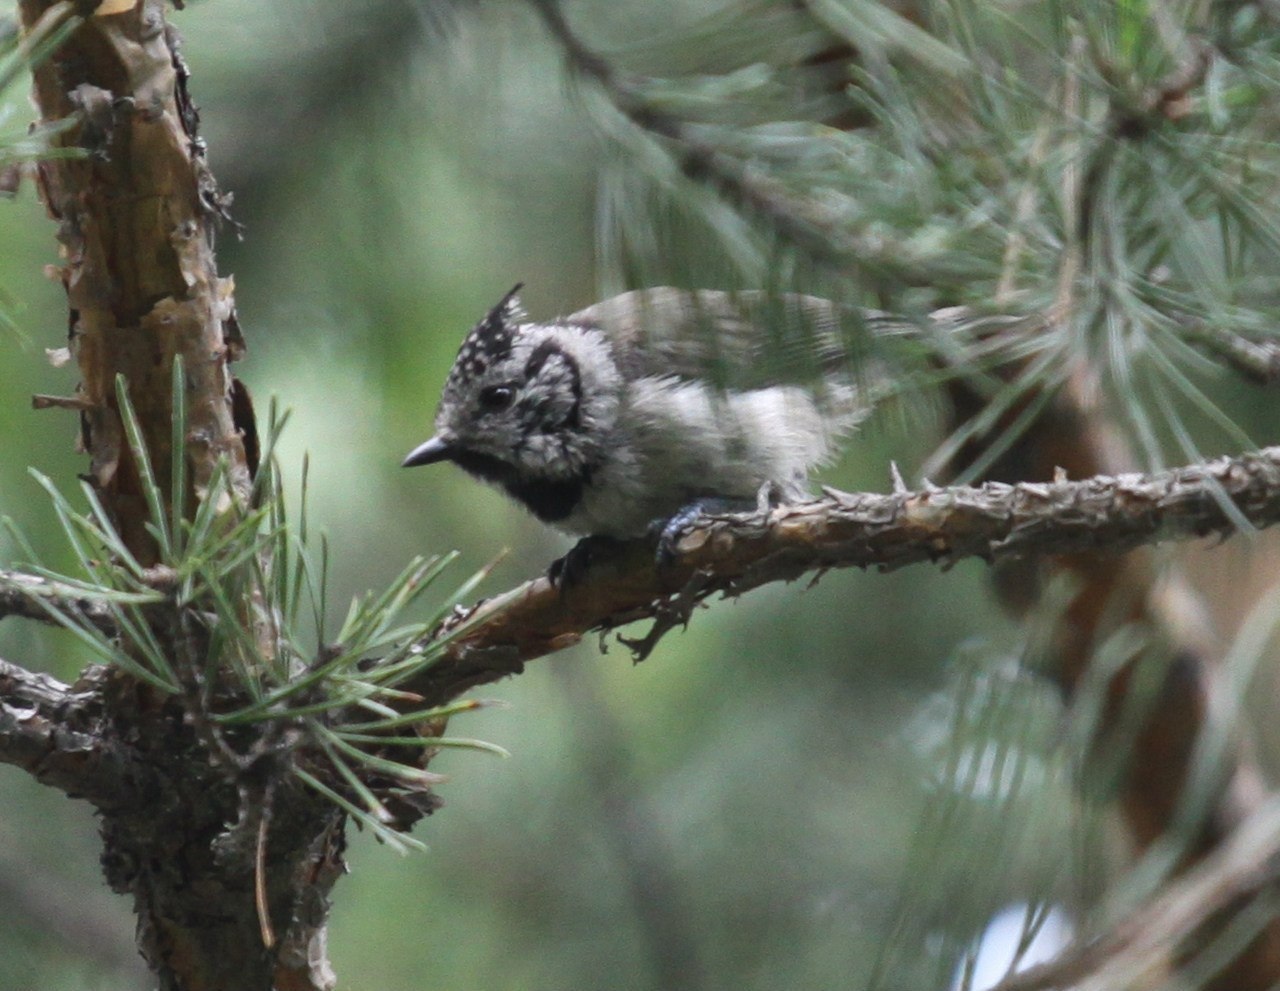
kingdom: Animalia
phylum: Chordata
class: Aves
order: Passeriformes
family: Paridae
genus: Lophophanes
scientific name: Lophophanes cristatus
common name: European crested tit
